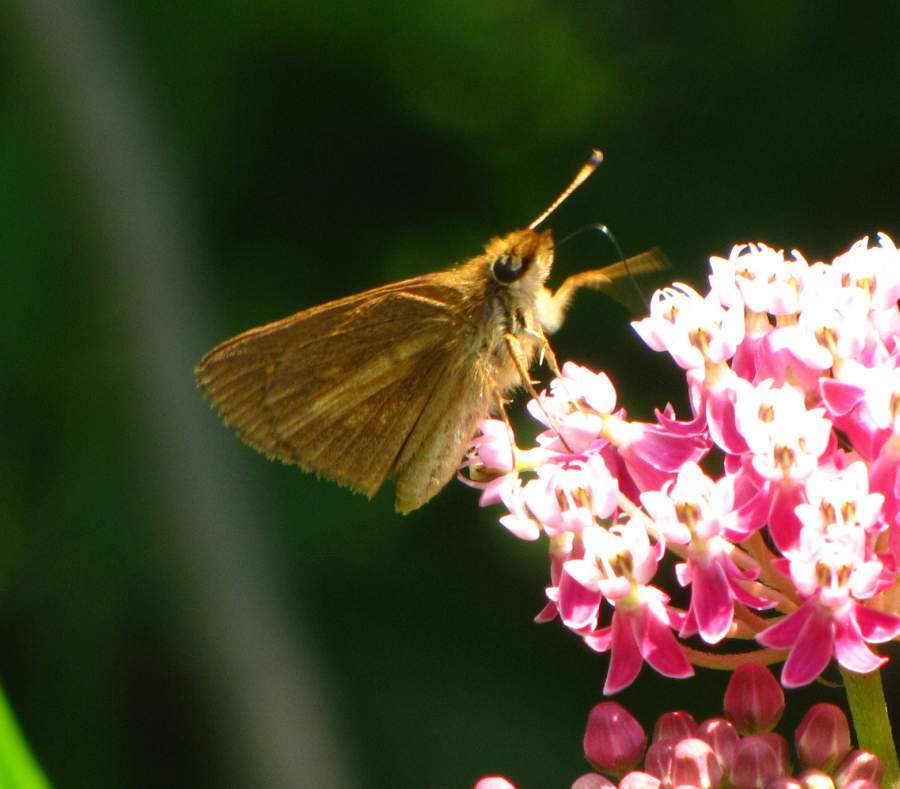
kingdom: Animalia
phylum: Arthropoda
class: Insecta
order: Lepidoptera
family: Hesperiidae
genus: Poanes
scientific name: Poanes viator
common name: Broad-winged skipper
